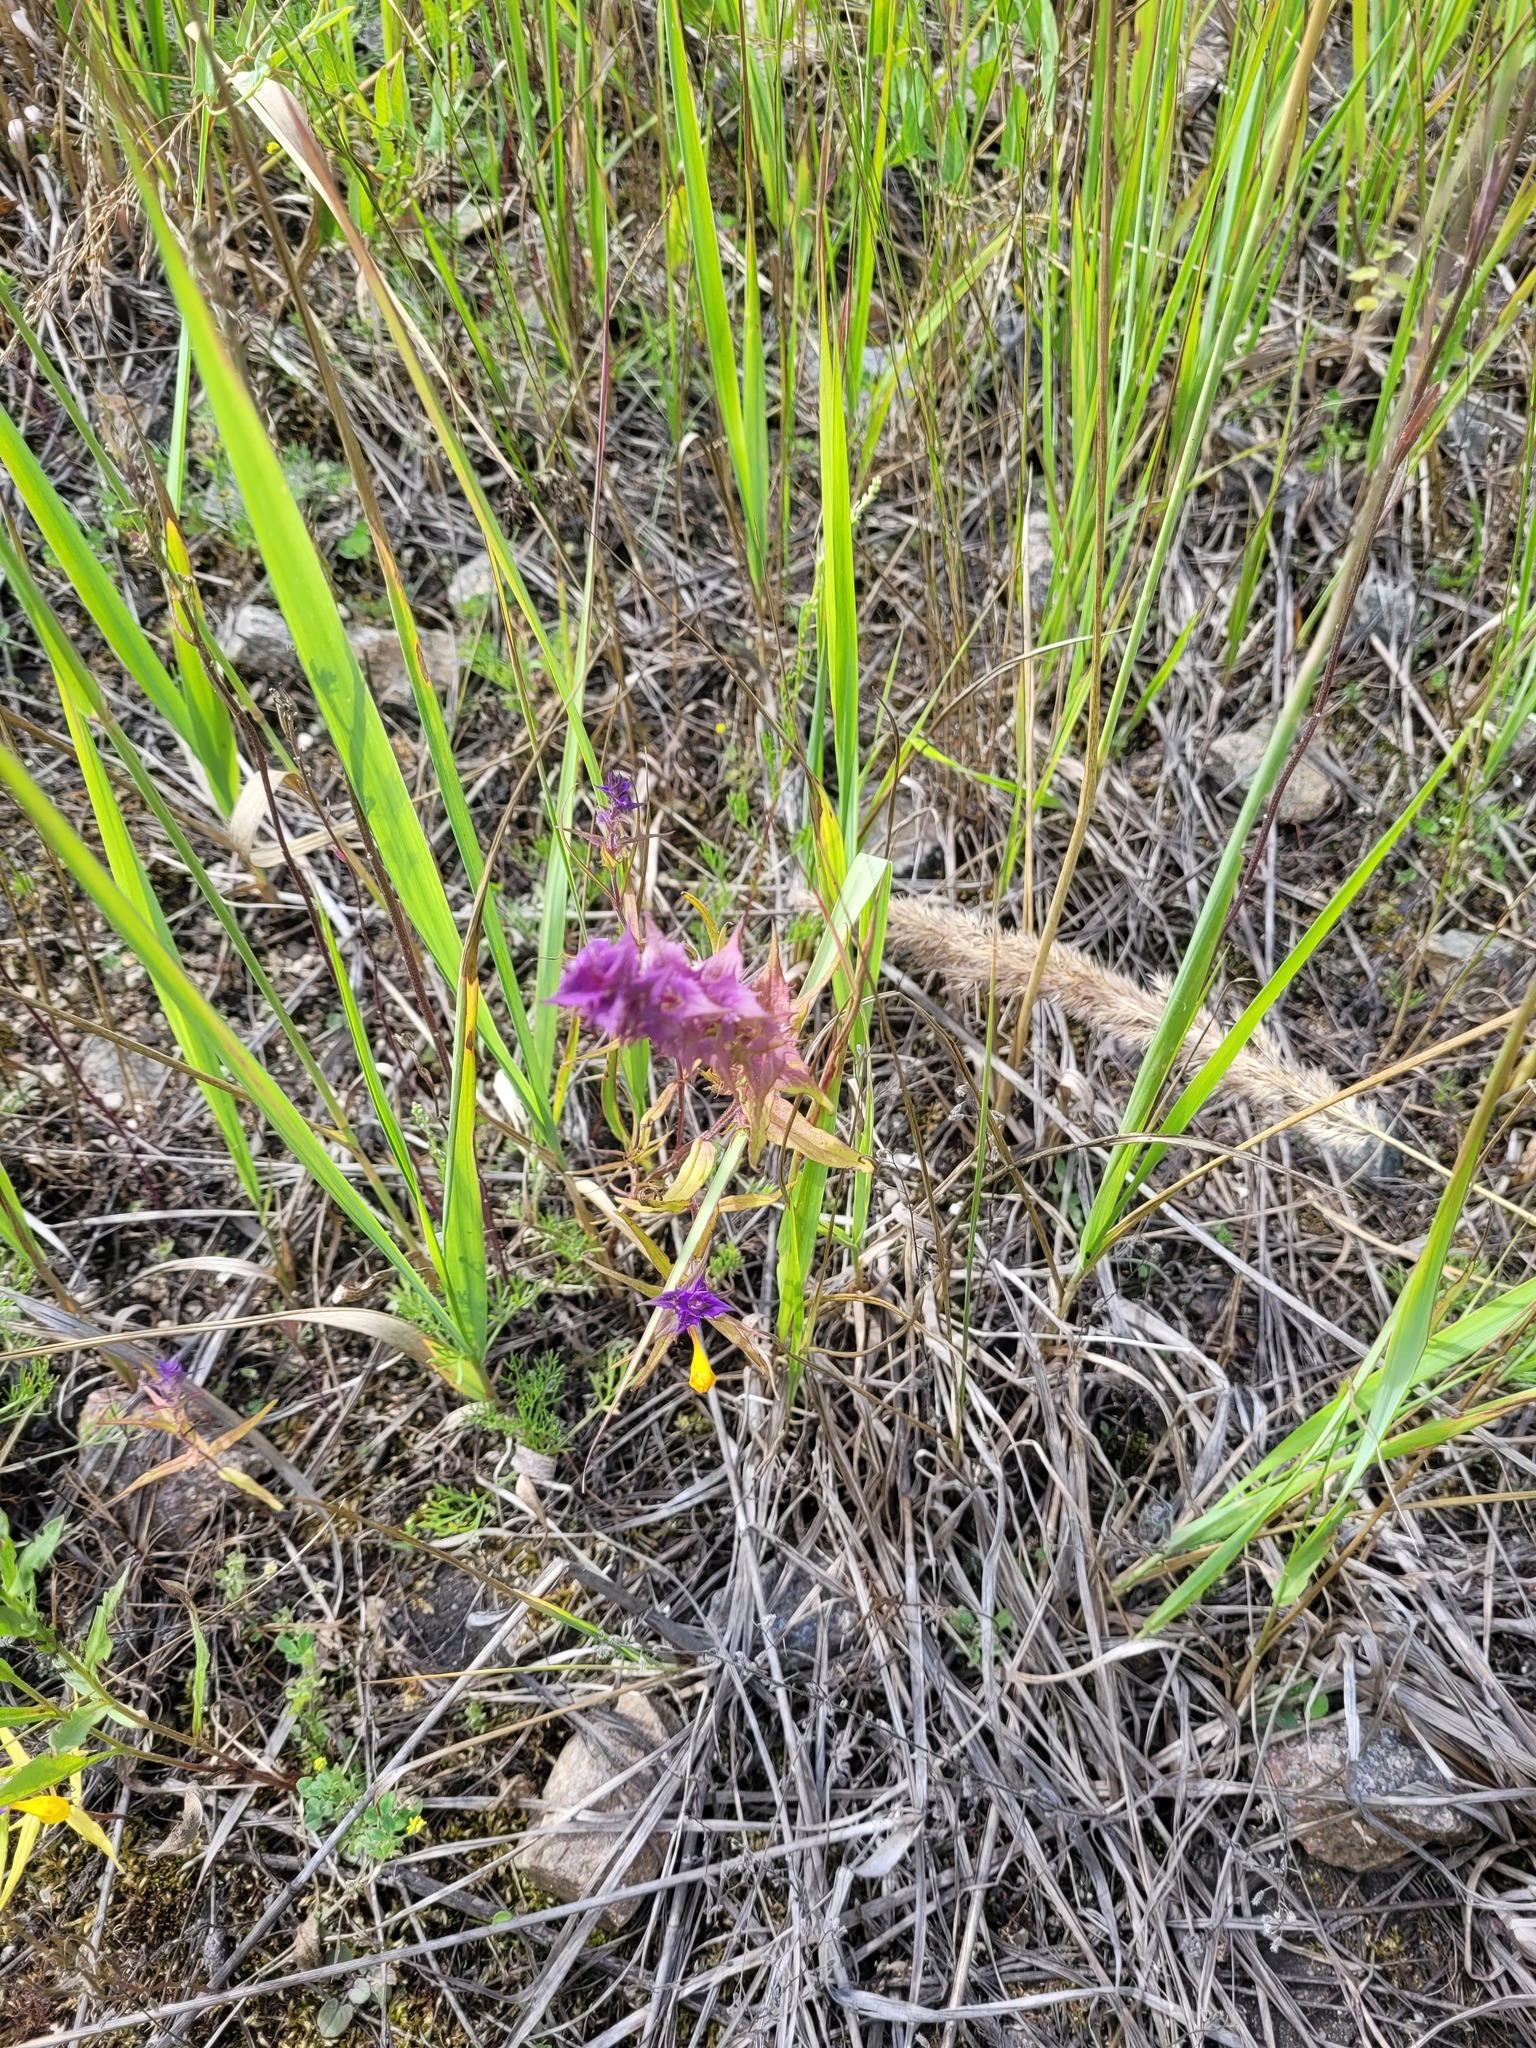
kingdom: Plantae
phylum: Tracheophyta
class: Magnoliopsida
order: Lamiales
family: Orobanchaceae
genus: Melampyrum
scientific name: Melampyrum nemorosum
